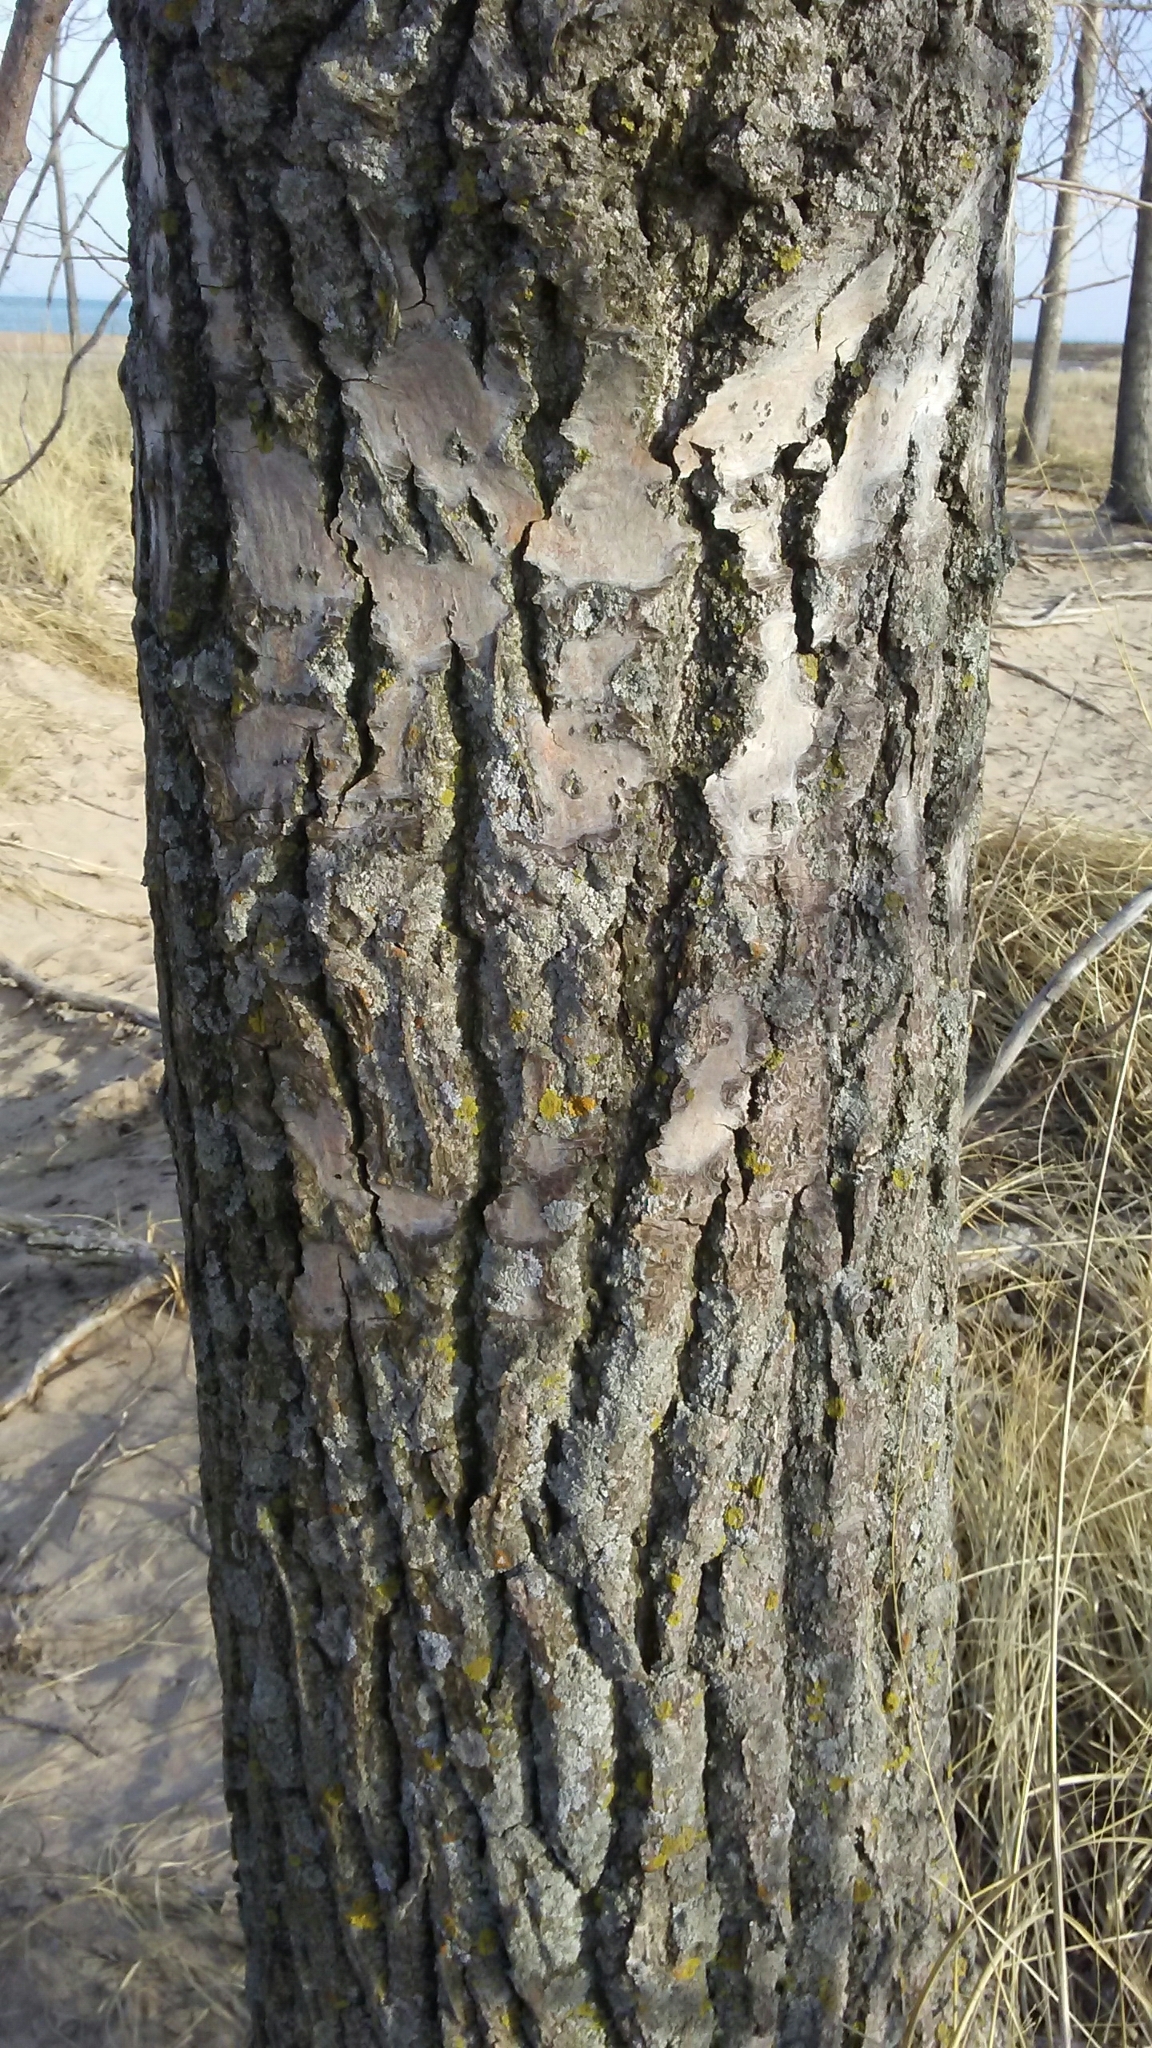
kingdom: Plantae
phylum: Tracheophyta
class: Magnoliopsida
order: Malpighiales
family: Salicaceae
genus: Populus
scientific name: Populus deltoides
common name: Eastern cottonwood
